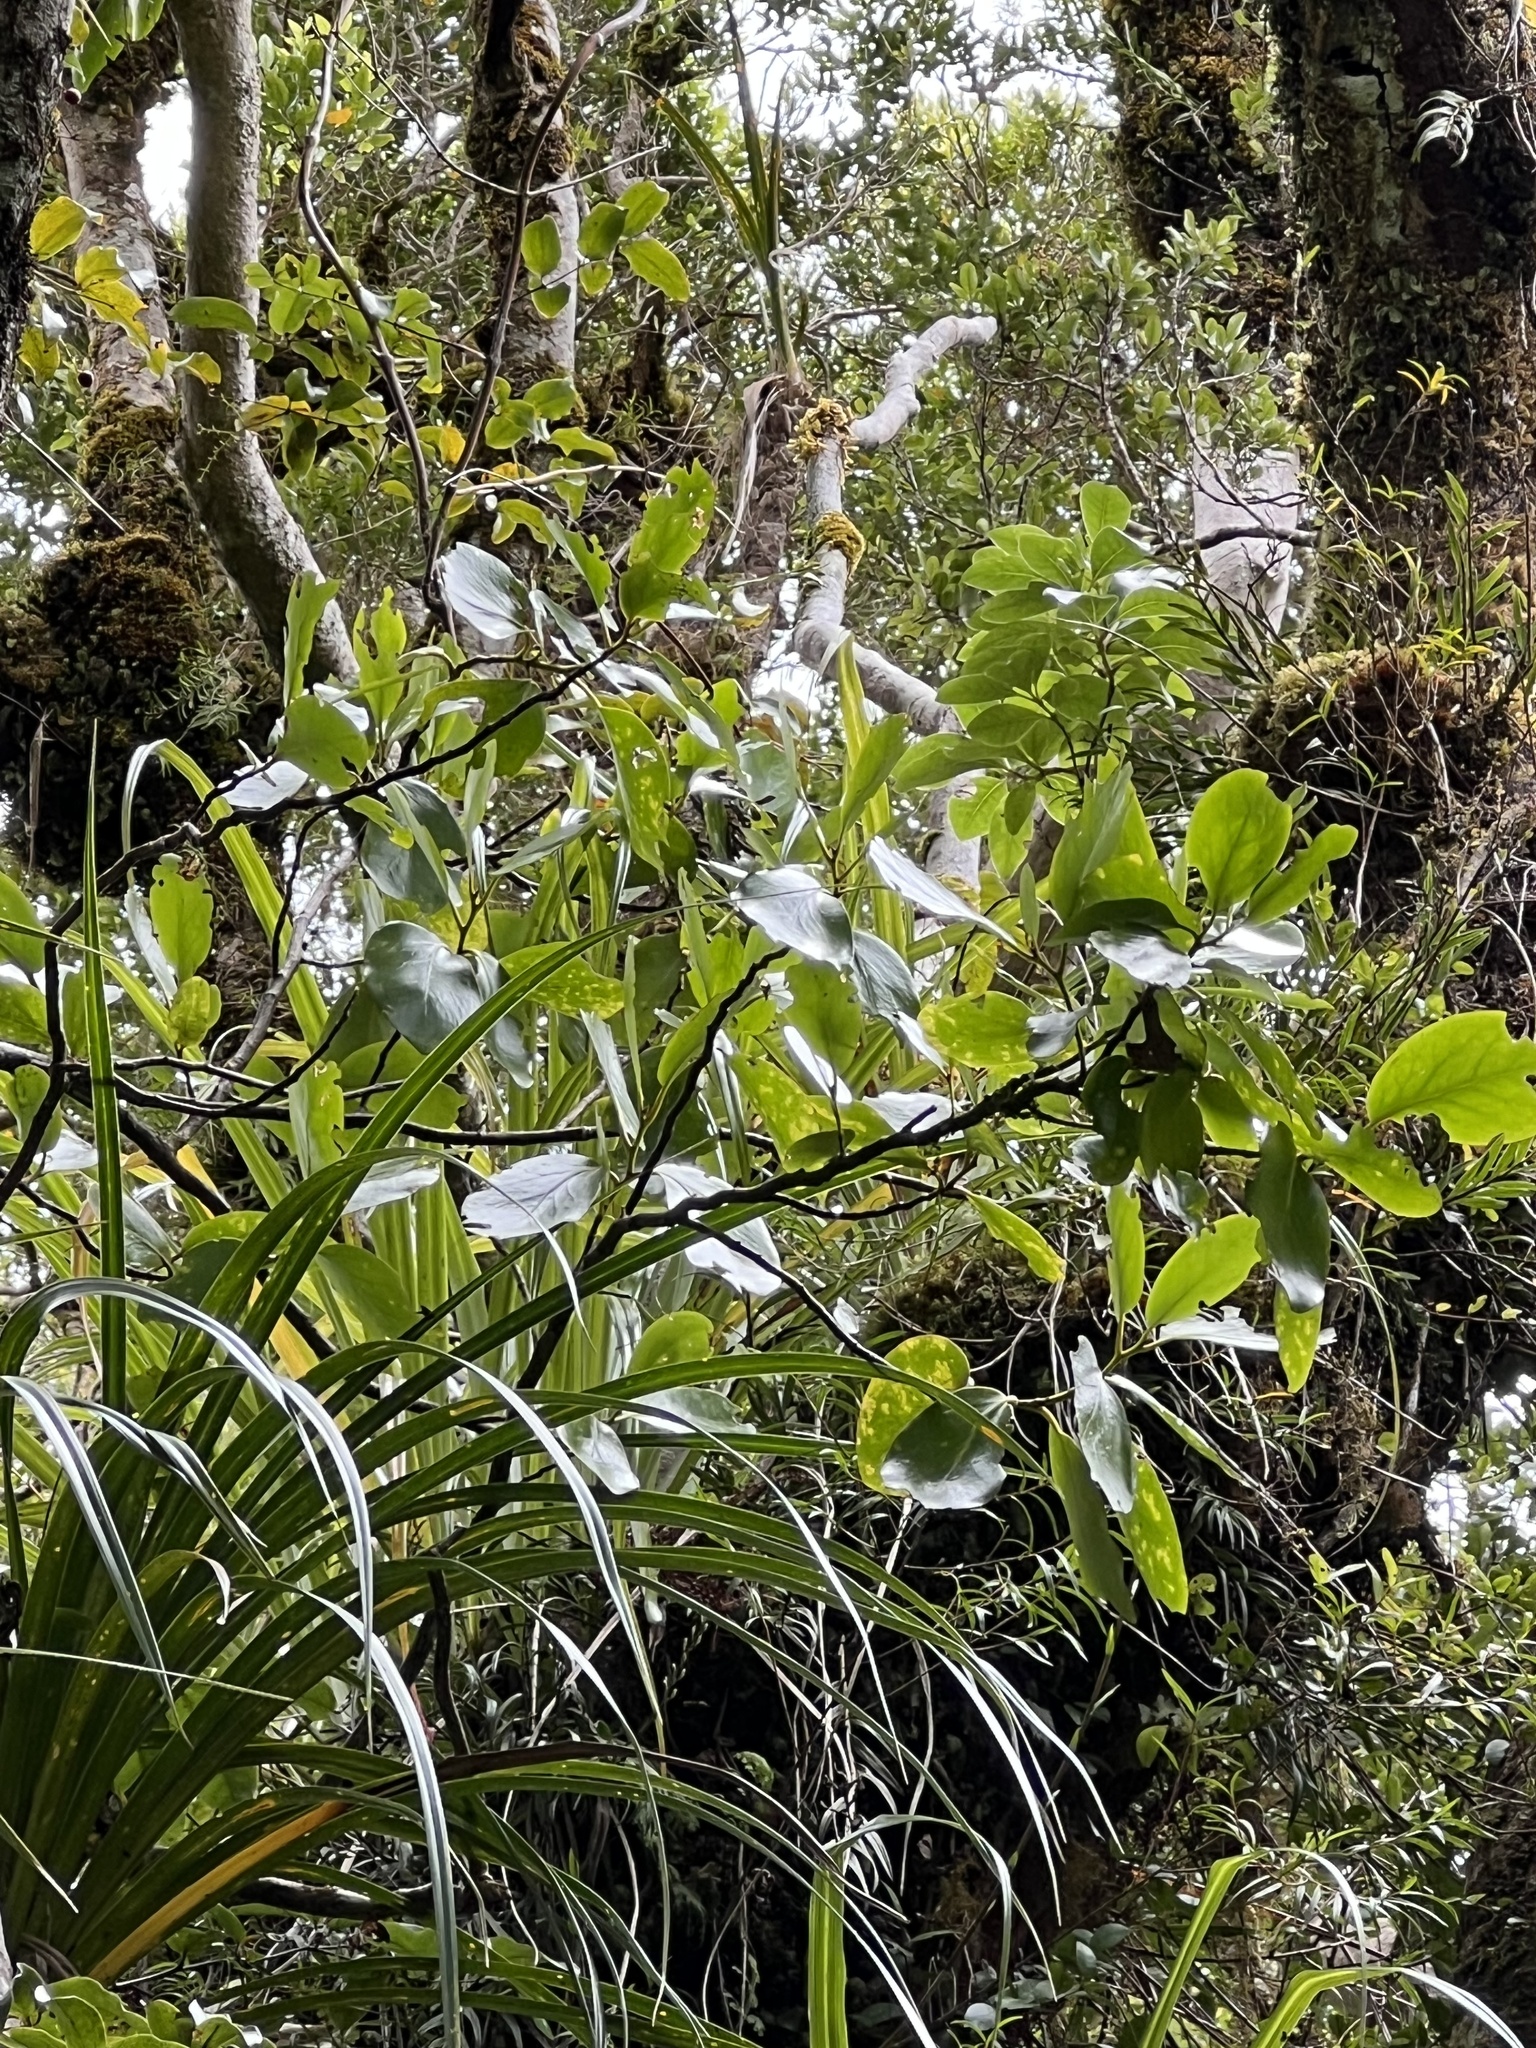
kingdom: Plantae
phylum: Tracheophyta
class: Magnoliopsida
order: Apiales
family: Griseliniaceae
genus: Griselinia
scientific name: Griselinia lucida
